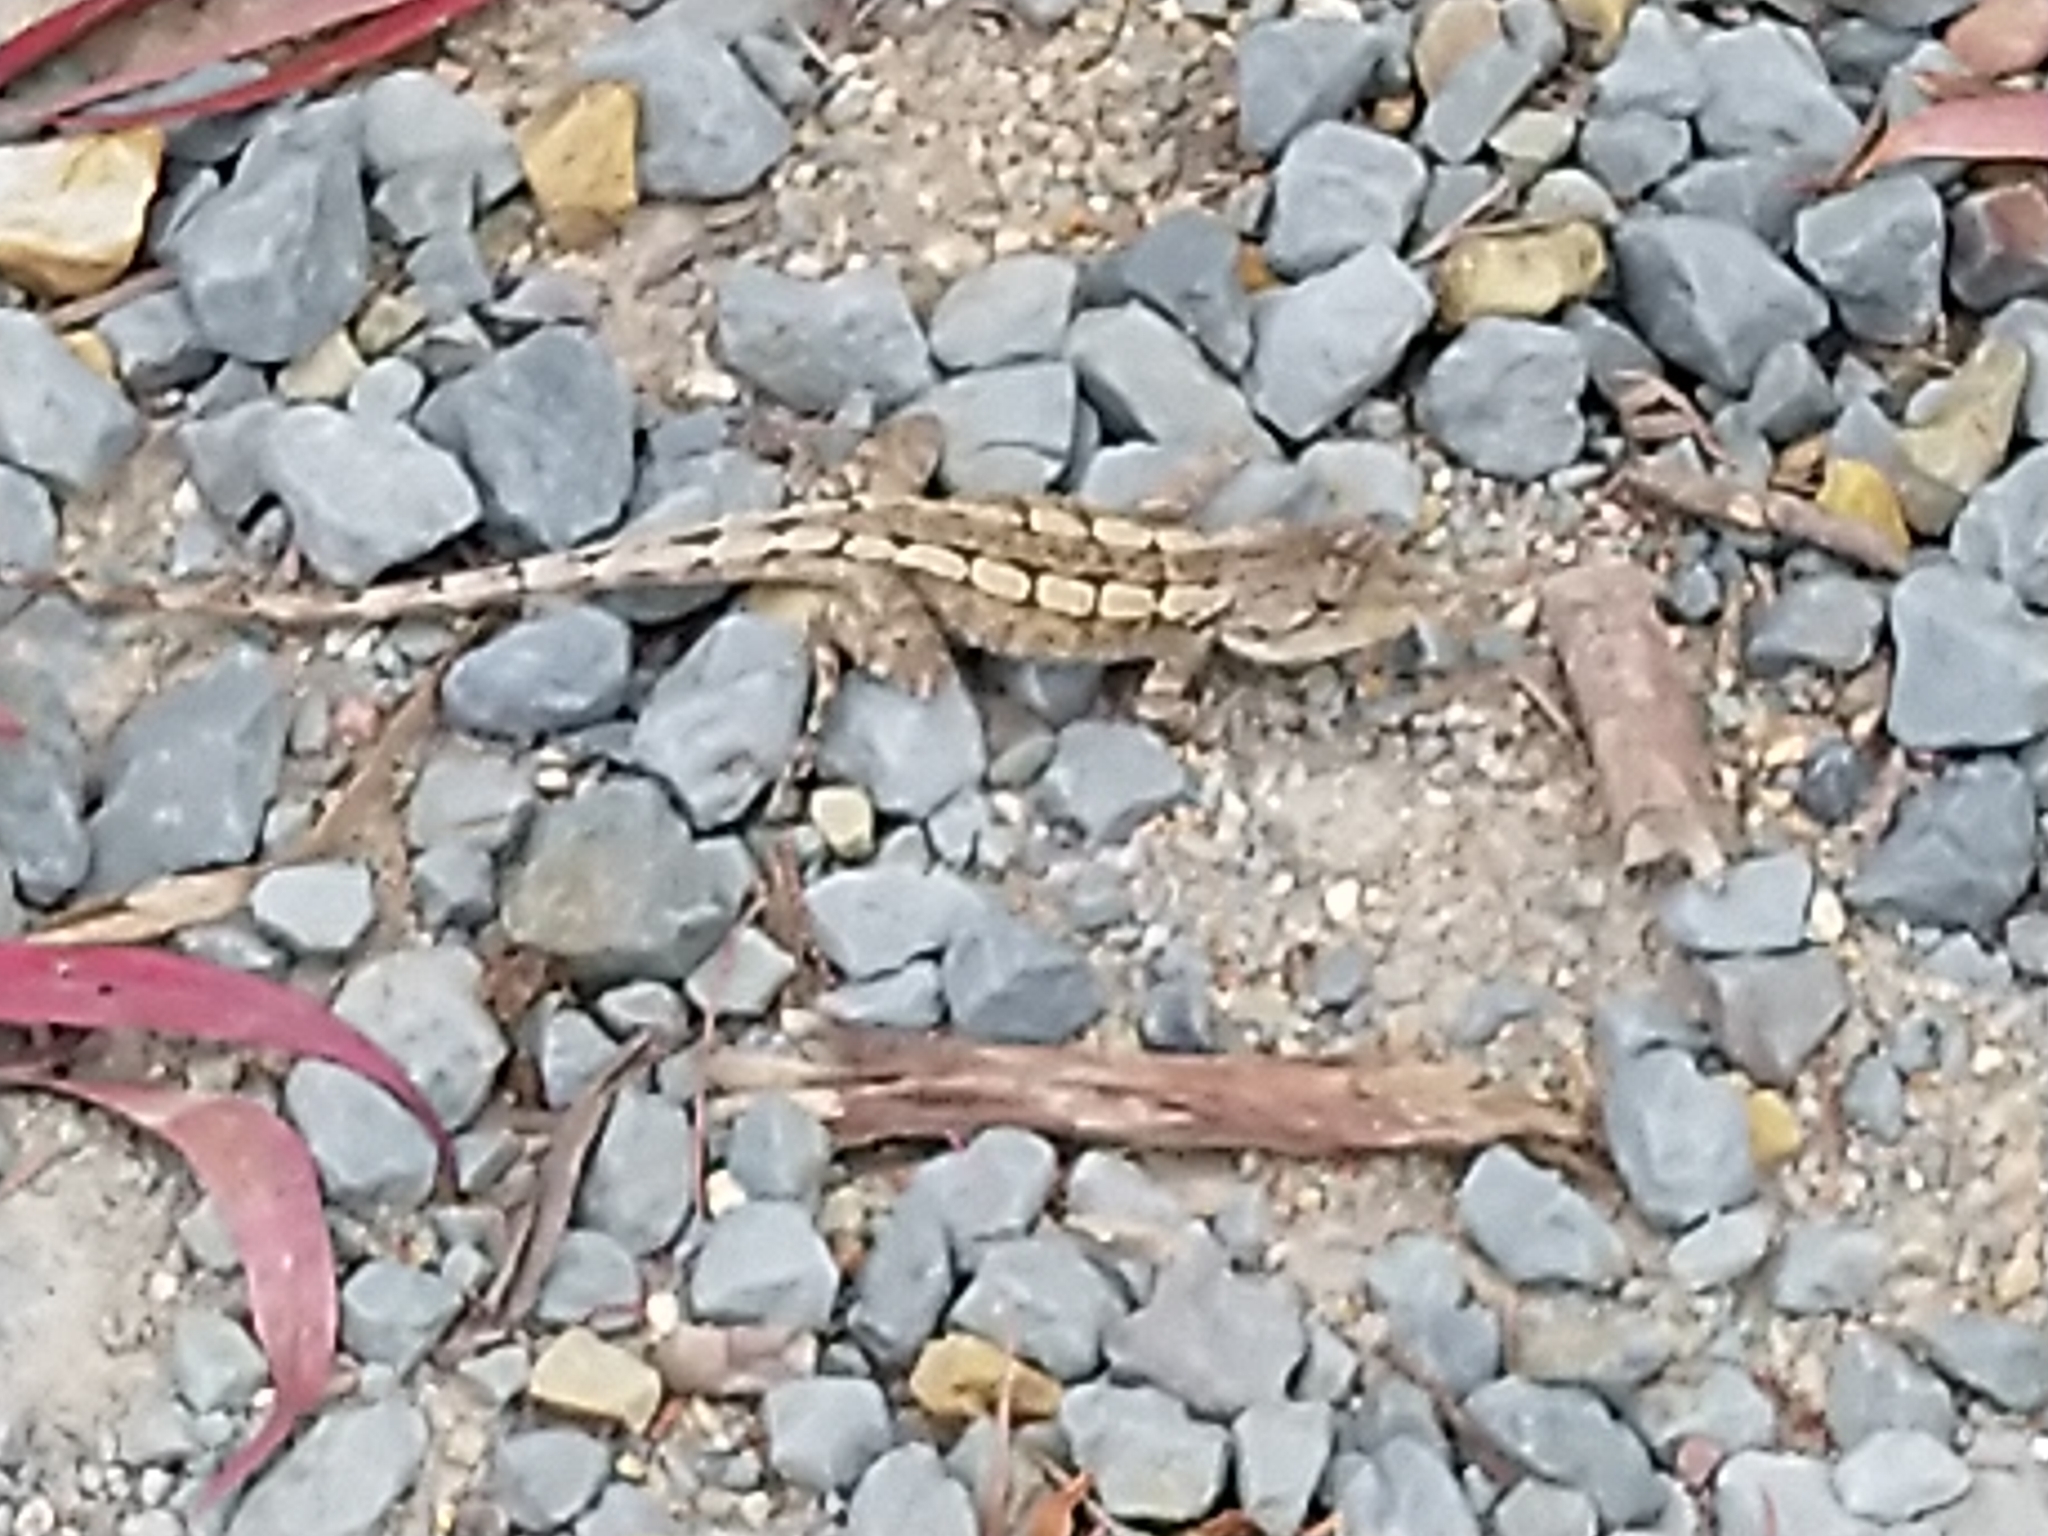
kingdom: Animalia
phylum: Chordata
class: Squamata
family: Agamidae
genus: Amphibolurus
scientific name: Amphibolurus muricatus
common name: Jacky lizard
